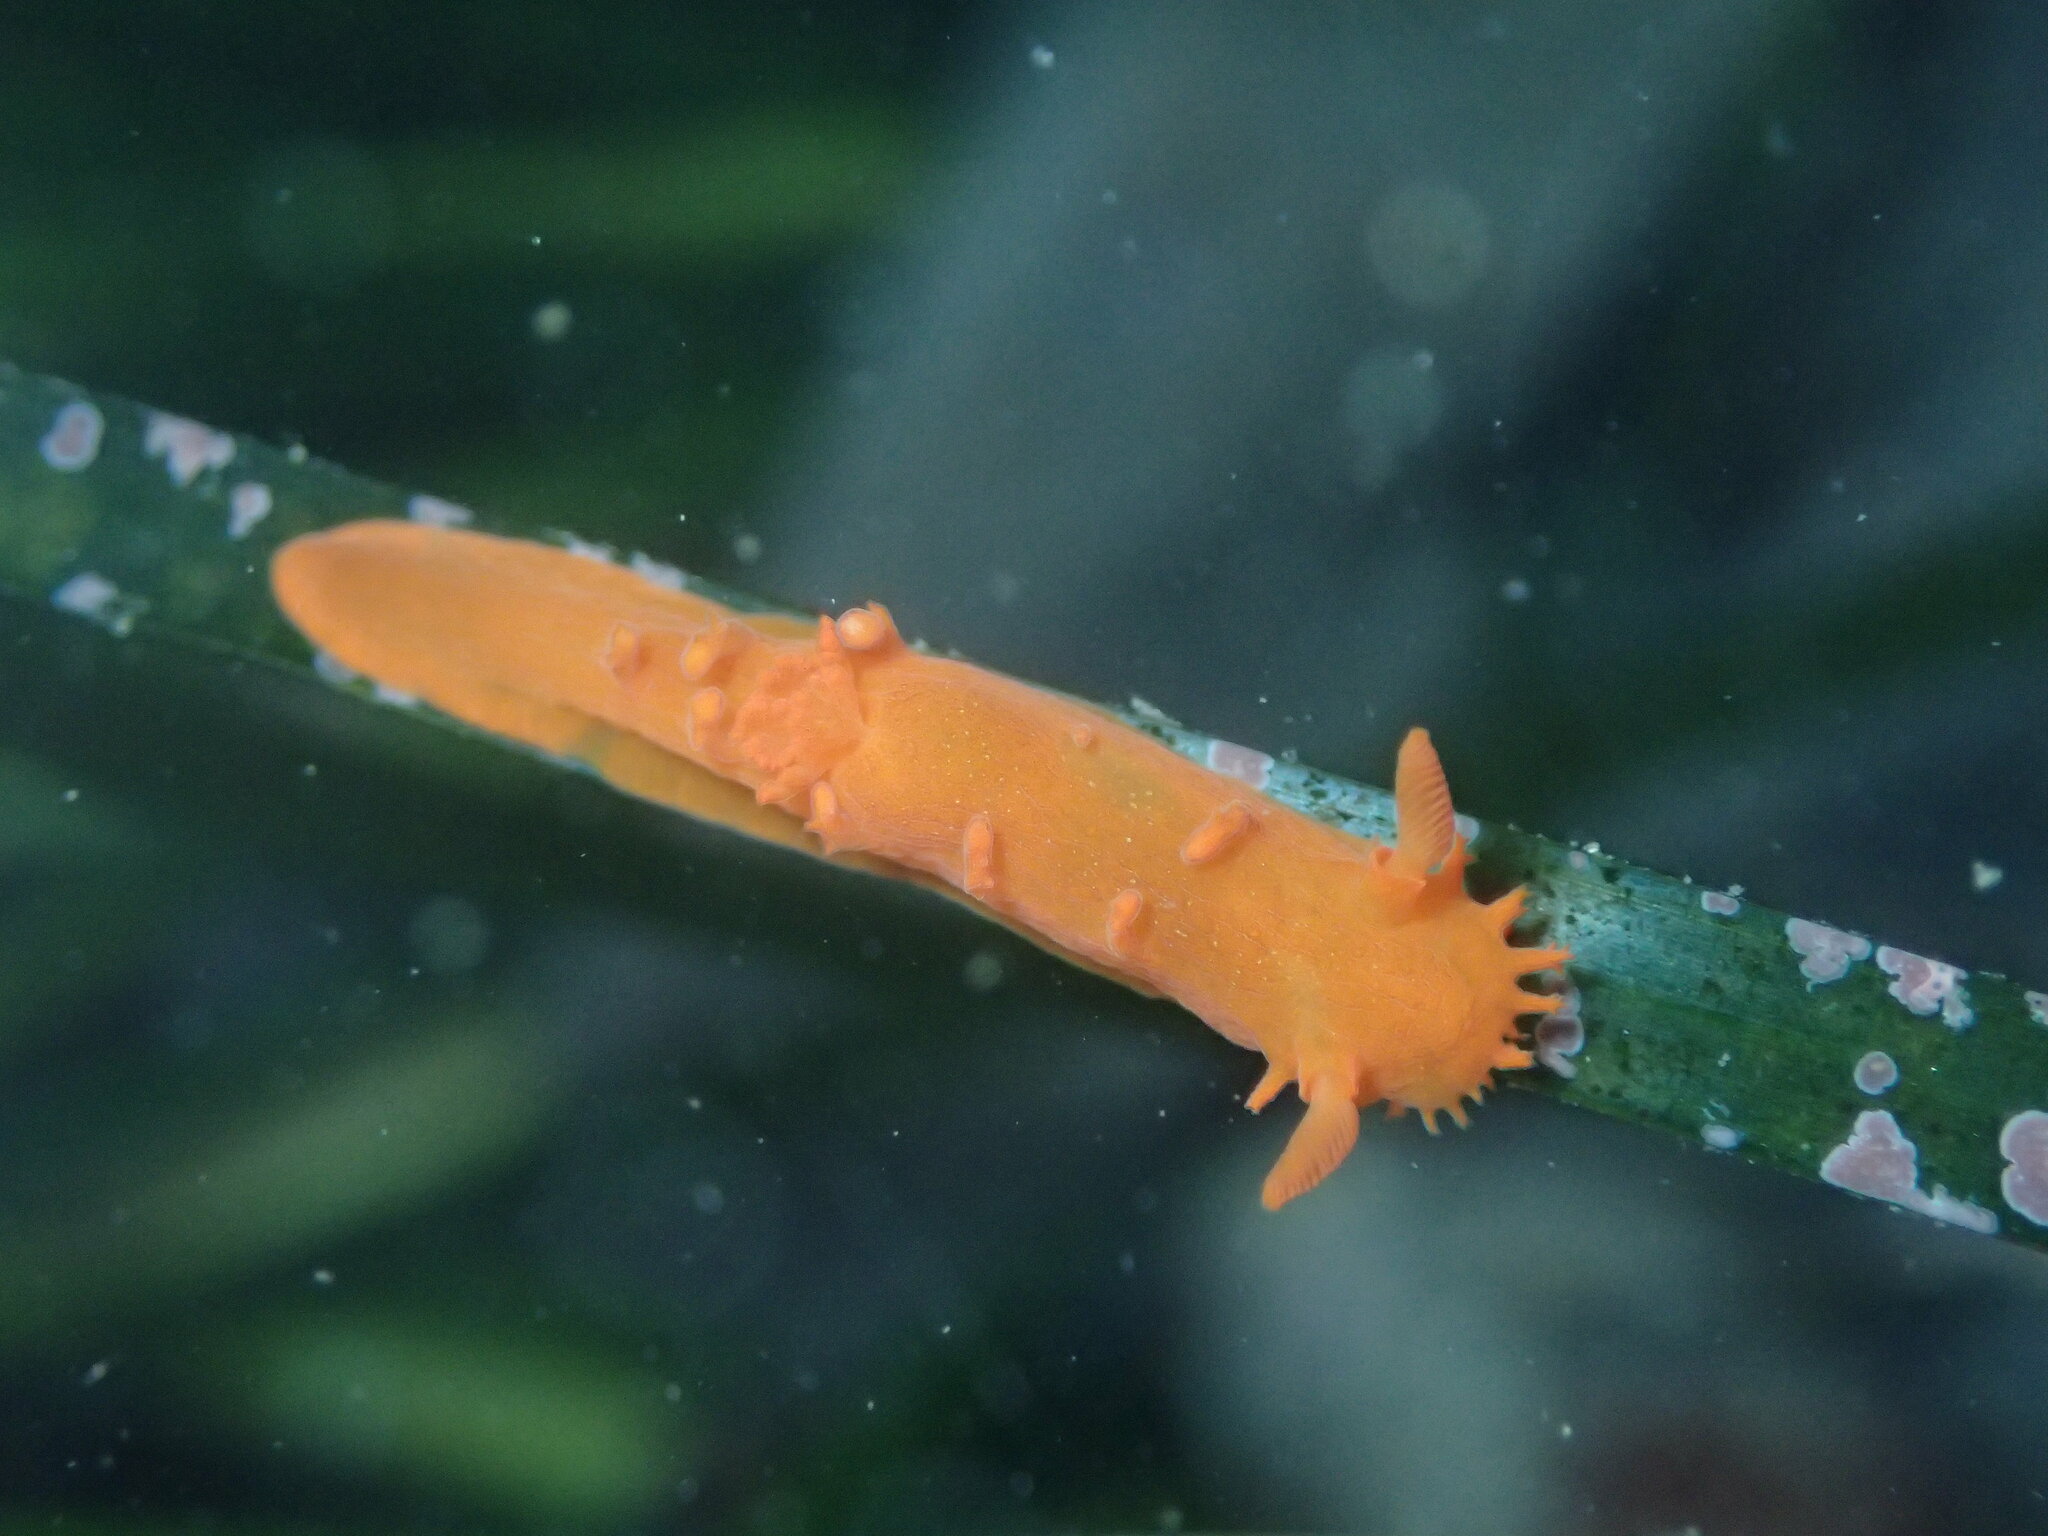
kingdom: Animalia
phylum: Mollusca
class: Gastropoda
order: Nudibranchia
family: Polyceridae
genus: Triopha
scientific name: Triopha maculata
